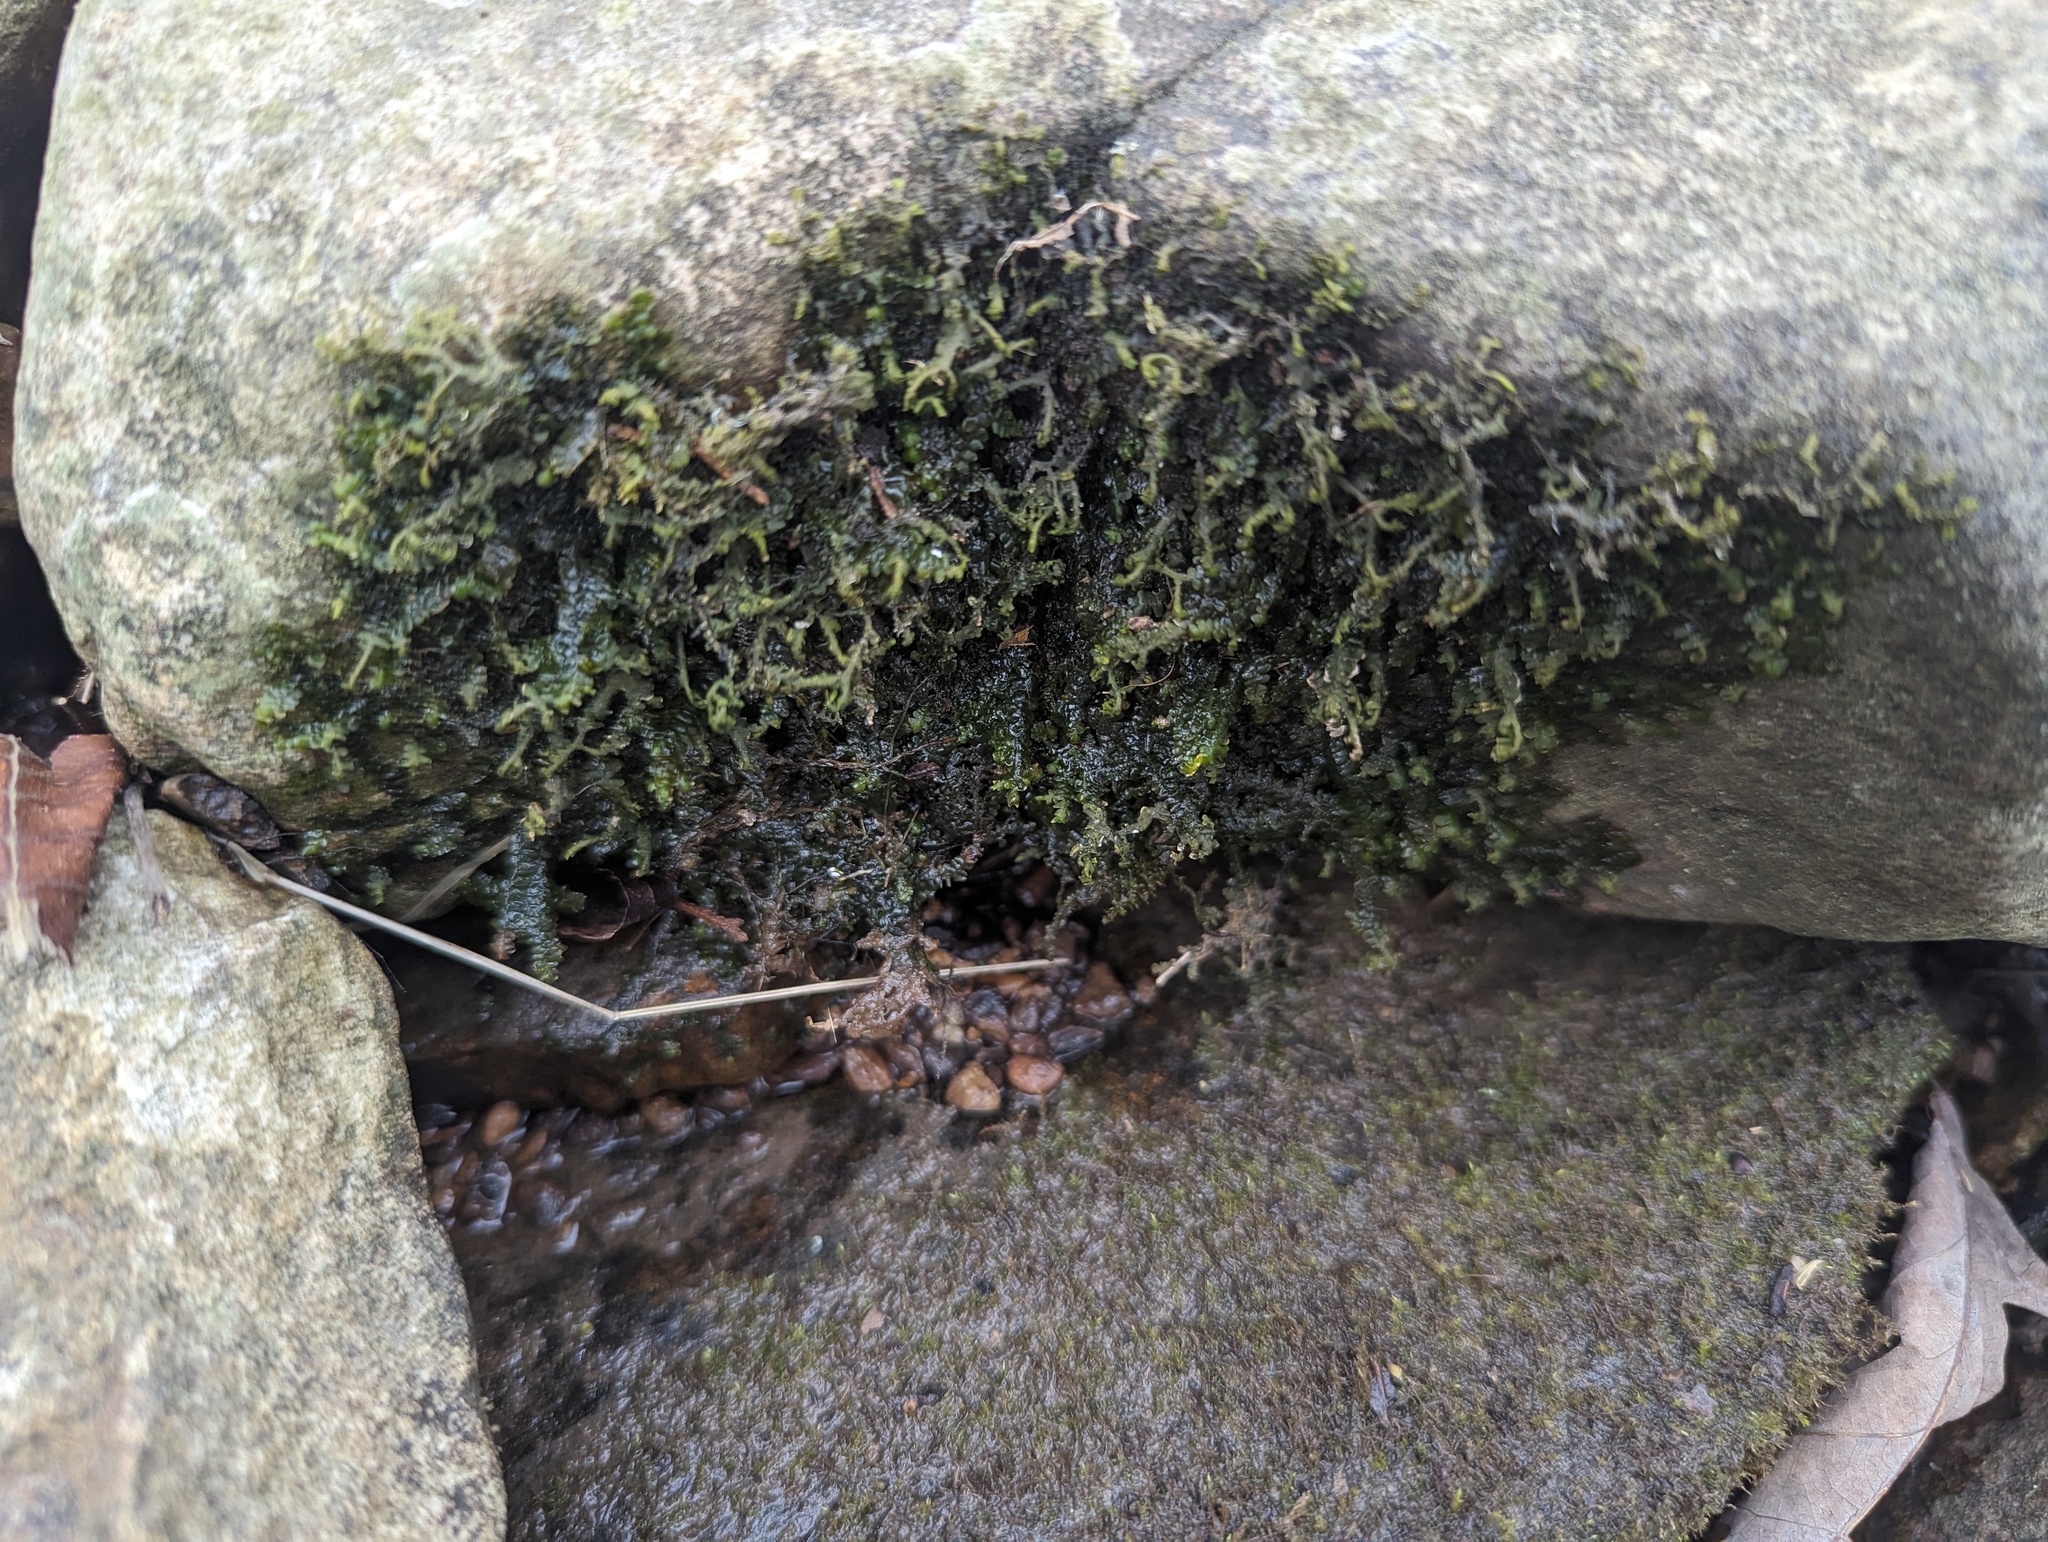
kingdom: Plantae
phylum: Marchantiophyta
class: Jungermanniopsida
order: Porellales
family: Porellaceae
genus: Porella
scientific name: Porella pinnata
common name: Pinnate scalewort
